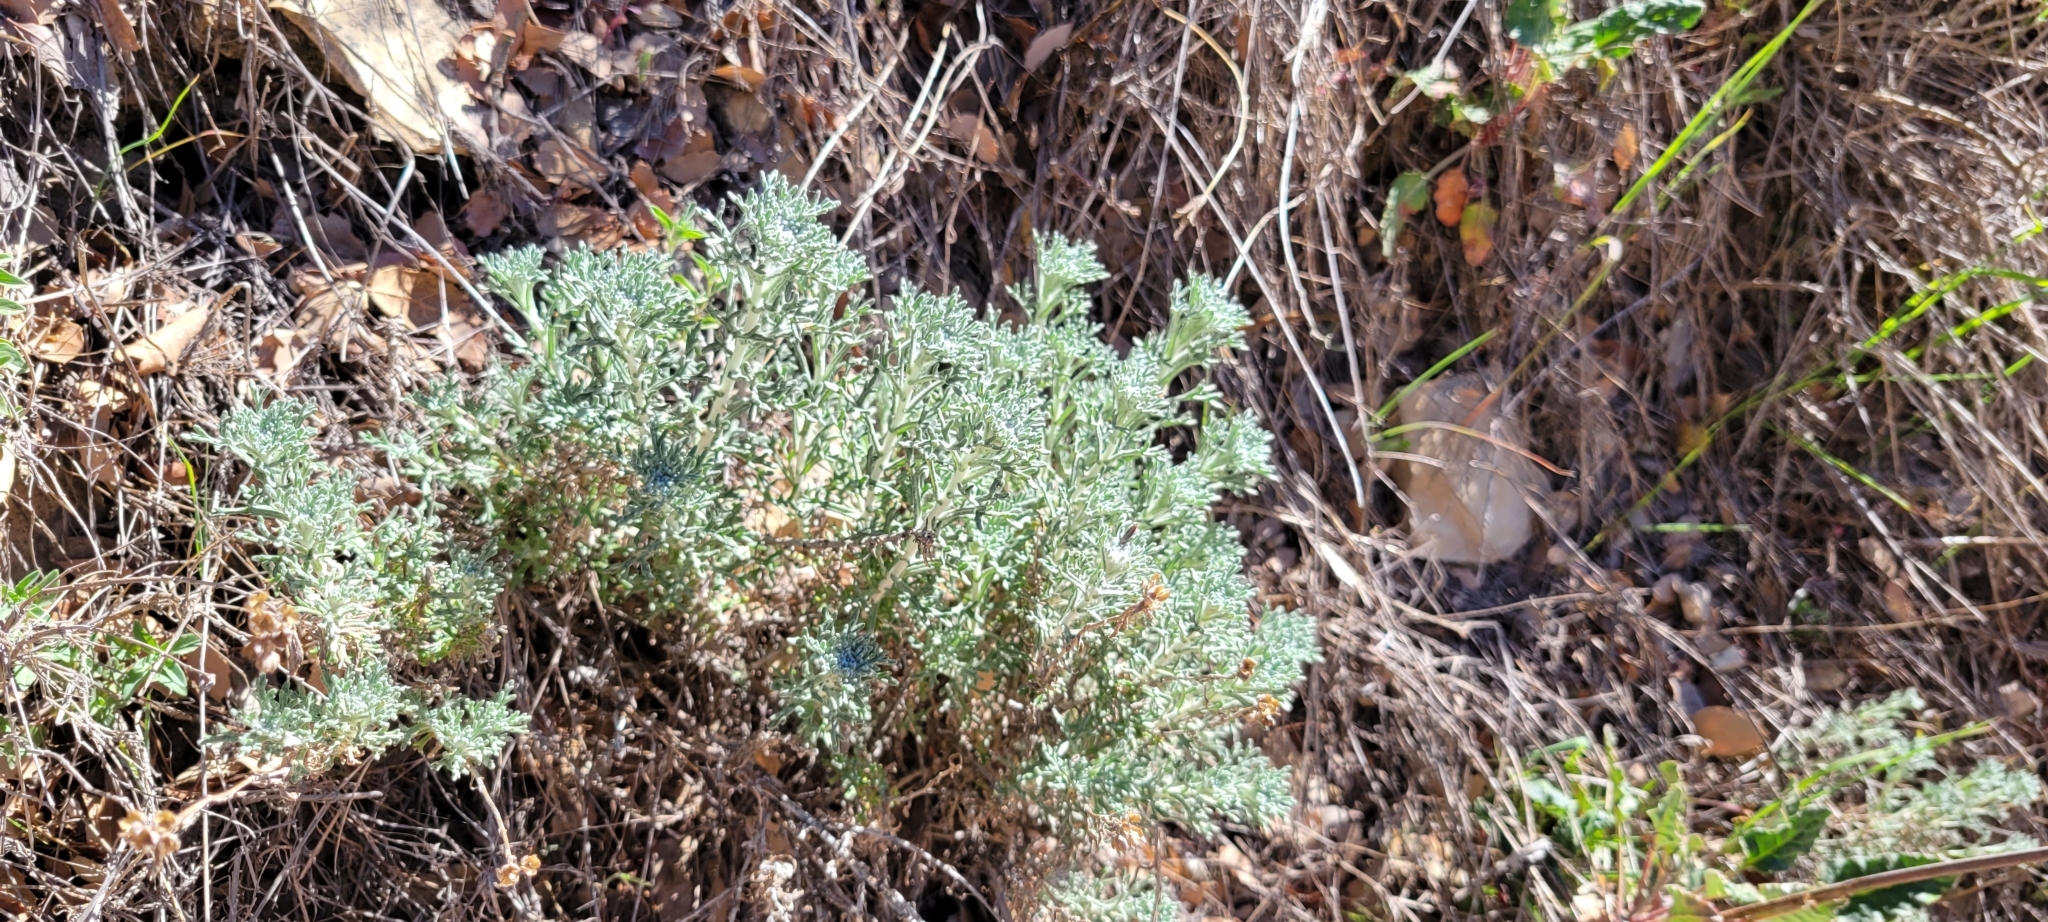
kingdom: Plantae
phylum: Tracheophyta
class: Magnoliopsida
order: Asterales
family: Asteraceae
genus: Eriophyllum
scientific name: Eriophyllum confertiflorum
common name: Golden-yarrow
